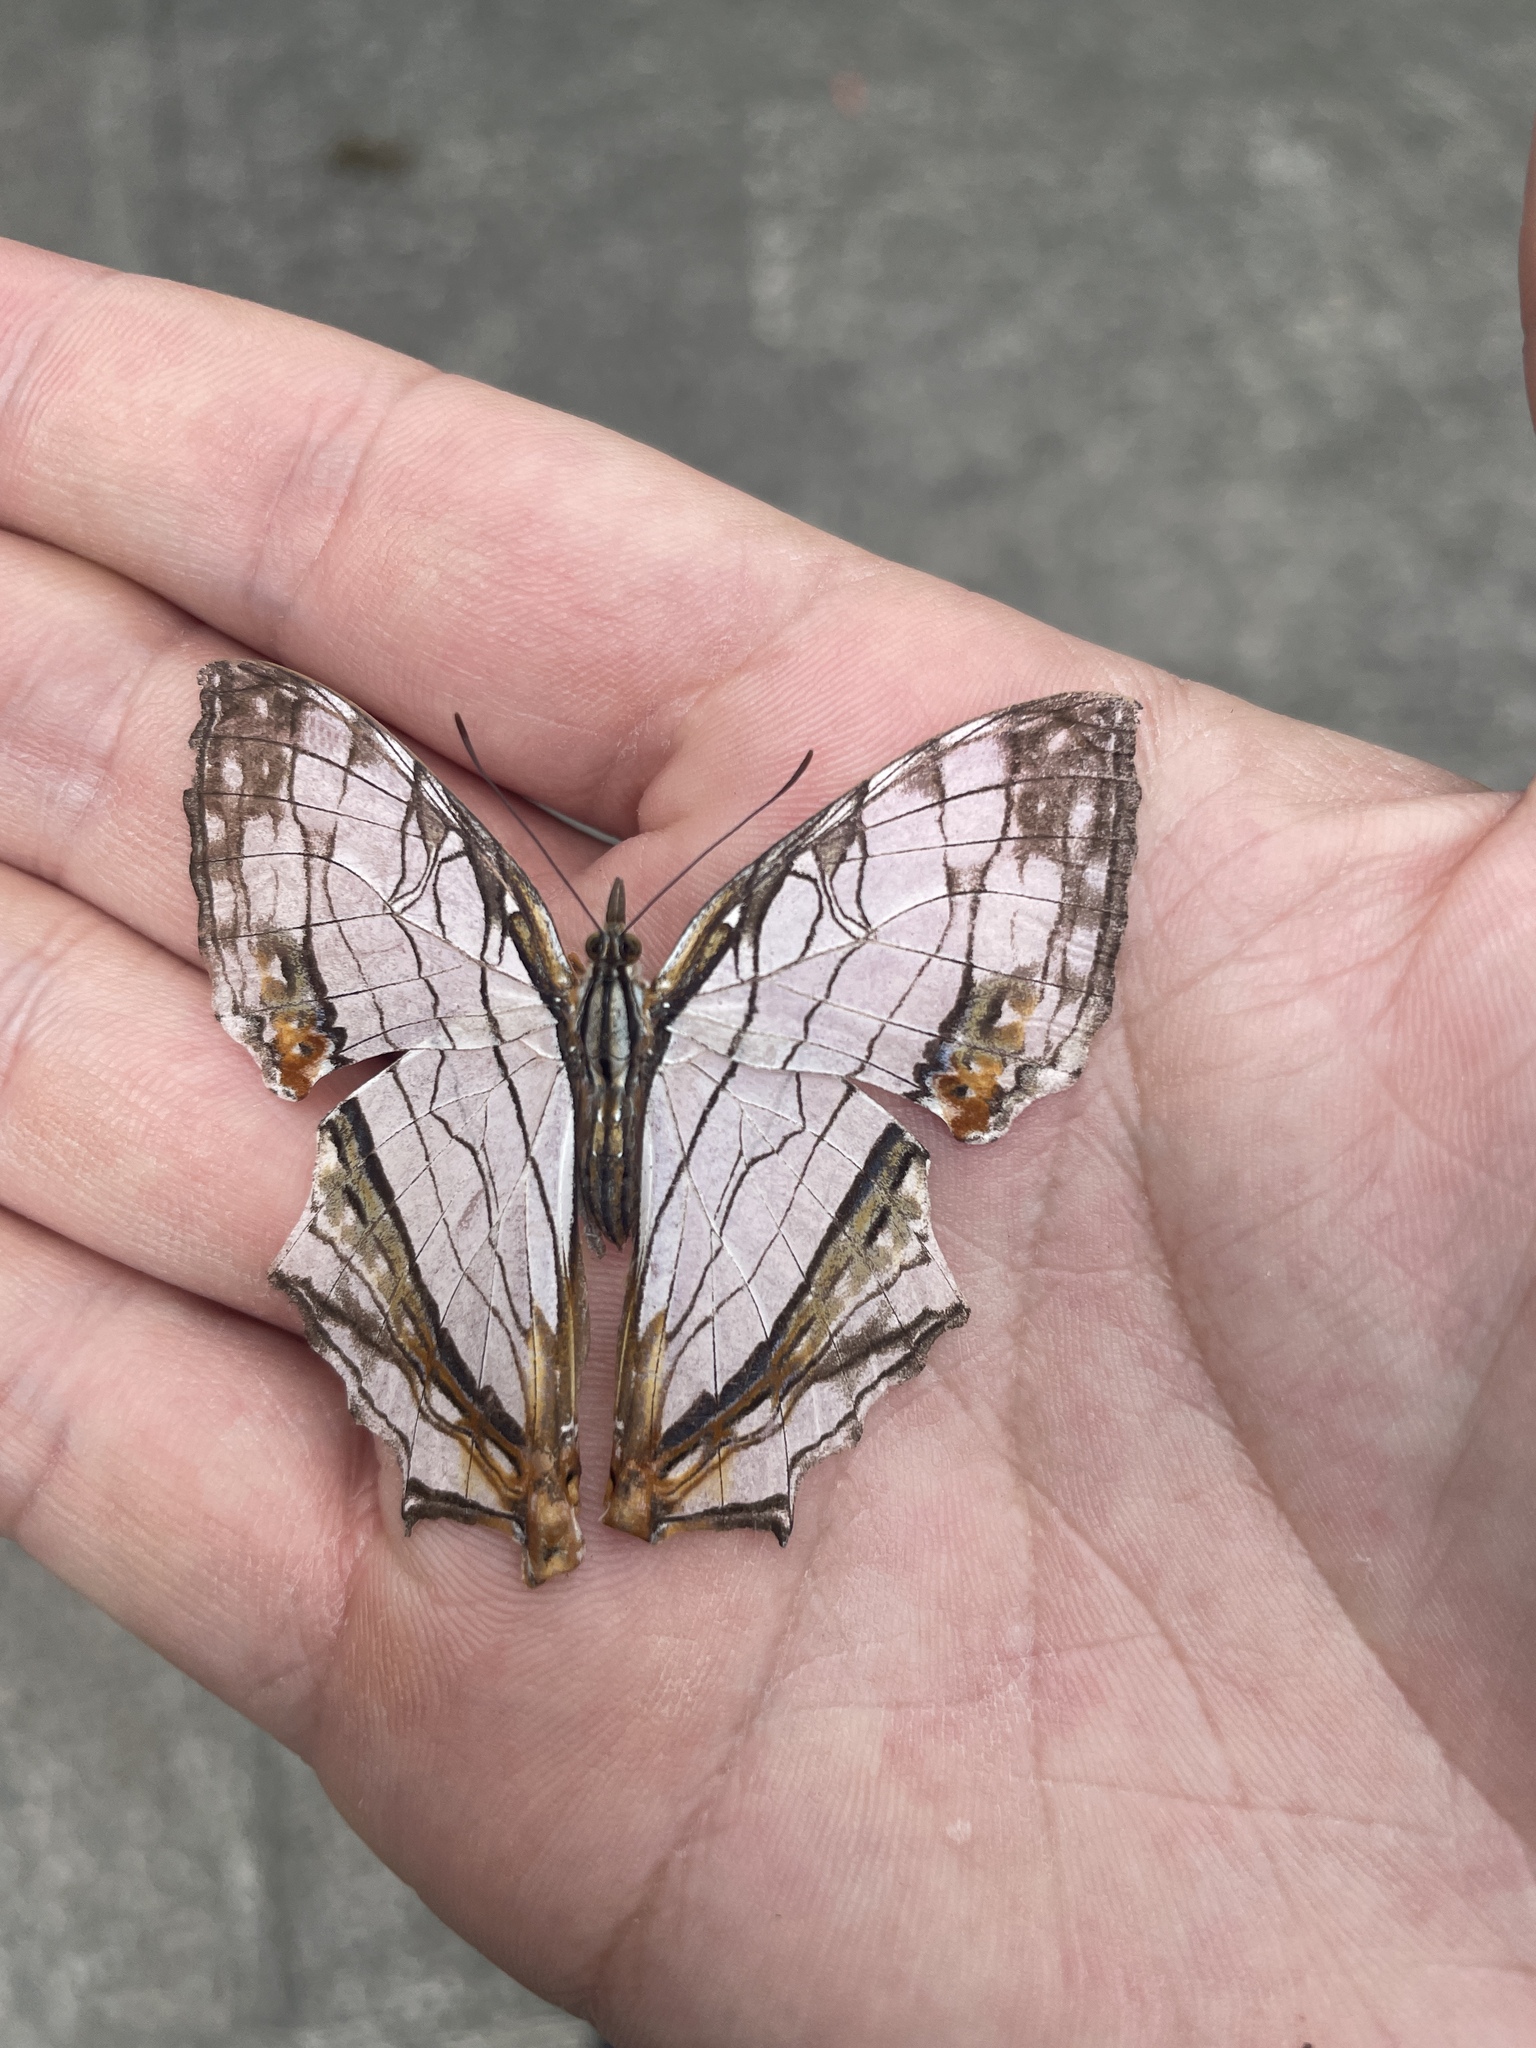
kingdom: Animalia
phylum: Arthropoda
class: Insecta
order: Lepidoptera
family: Nymphalidae
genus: Cyrestis
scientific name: Cyrestis thyodamas
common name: Common mapwing
